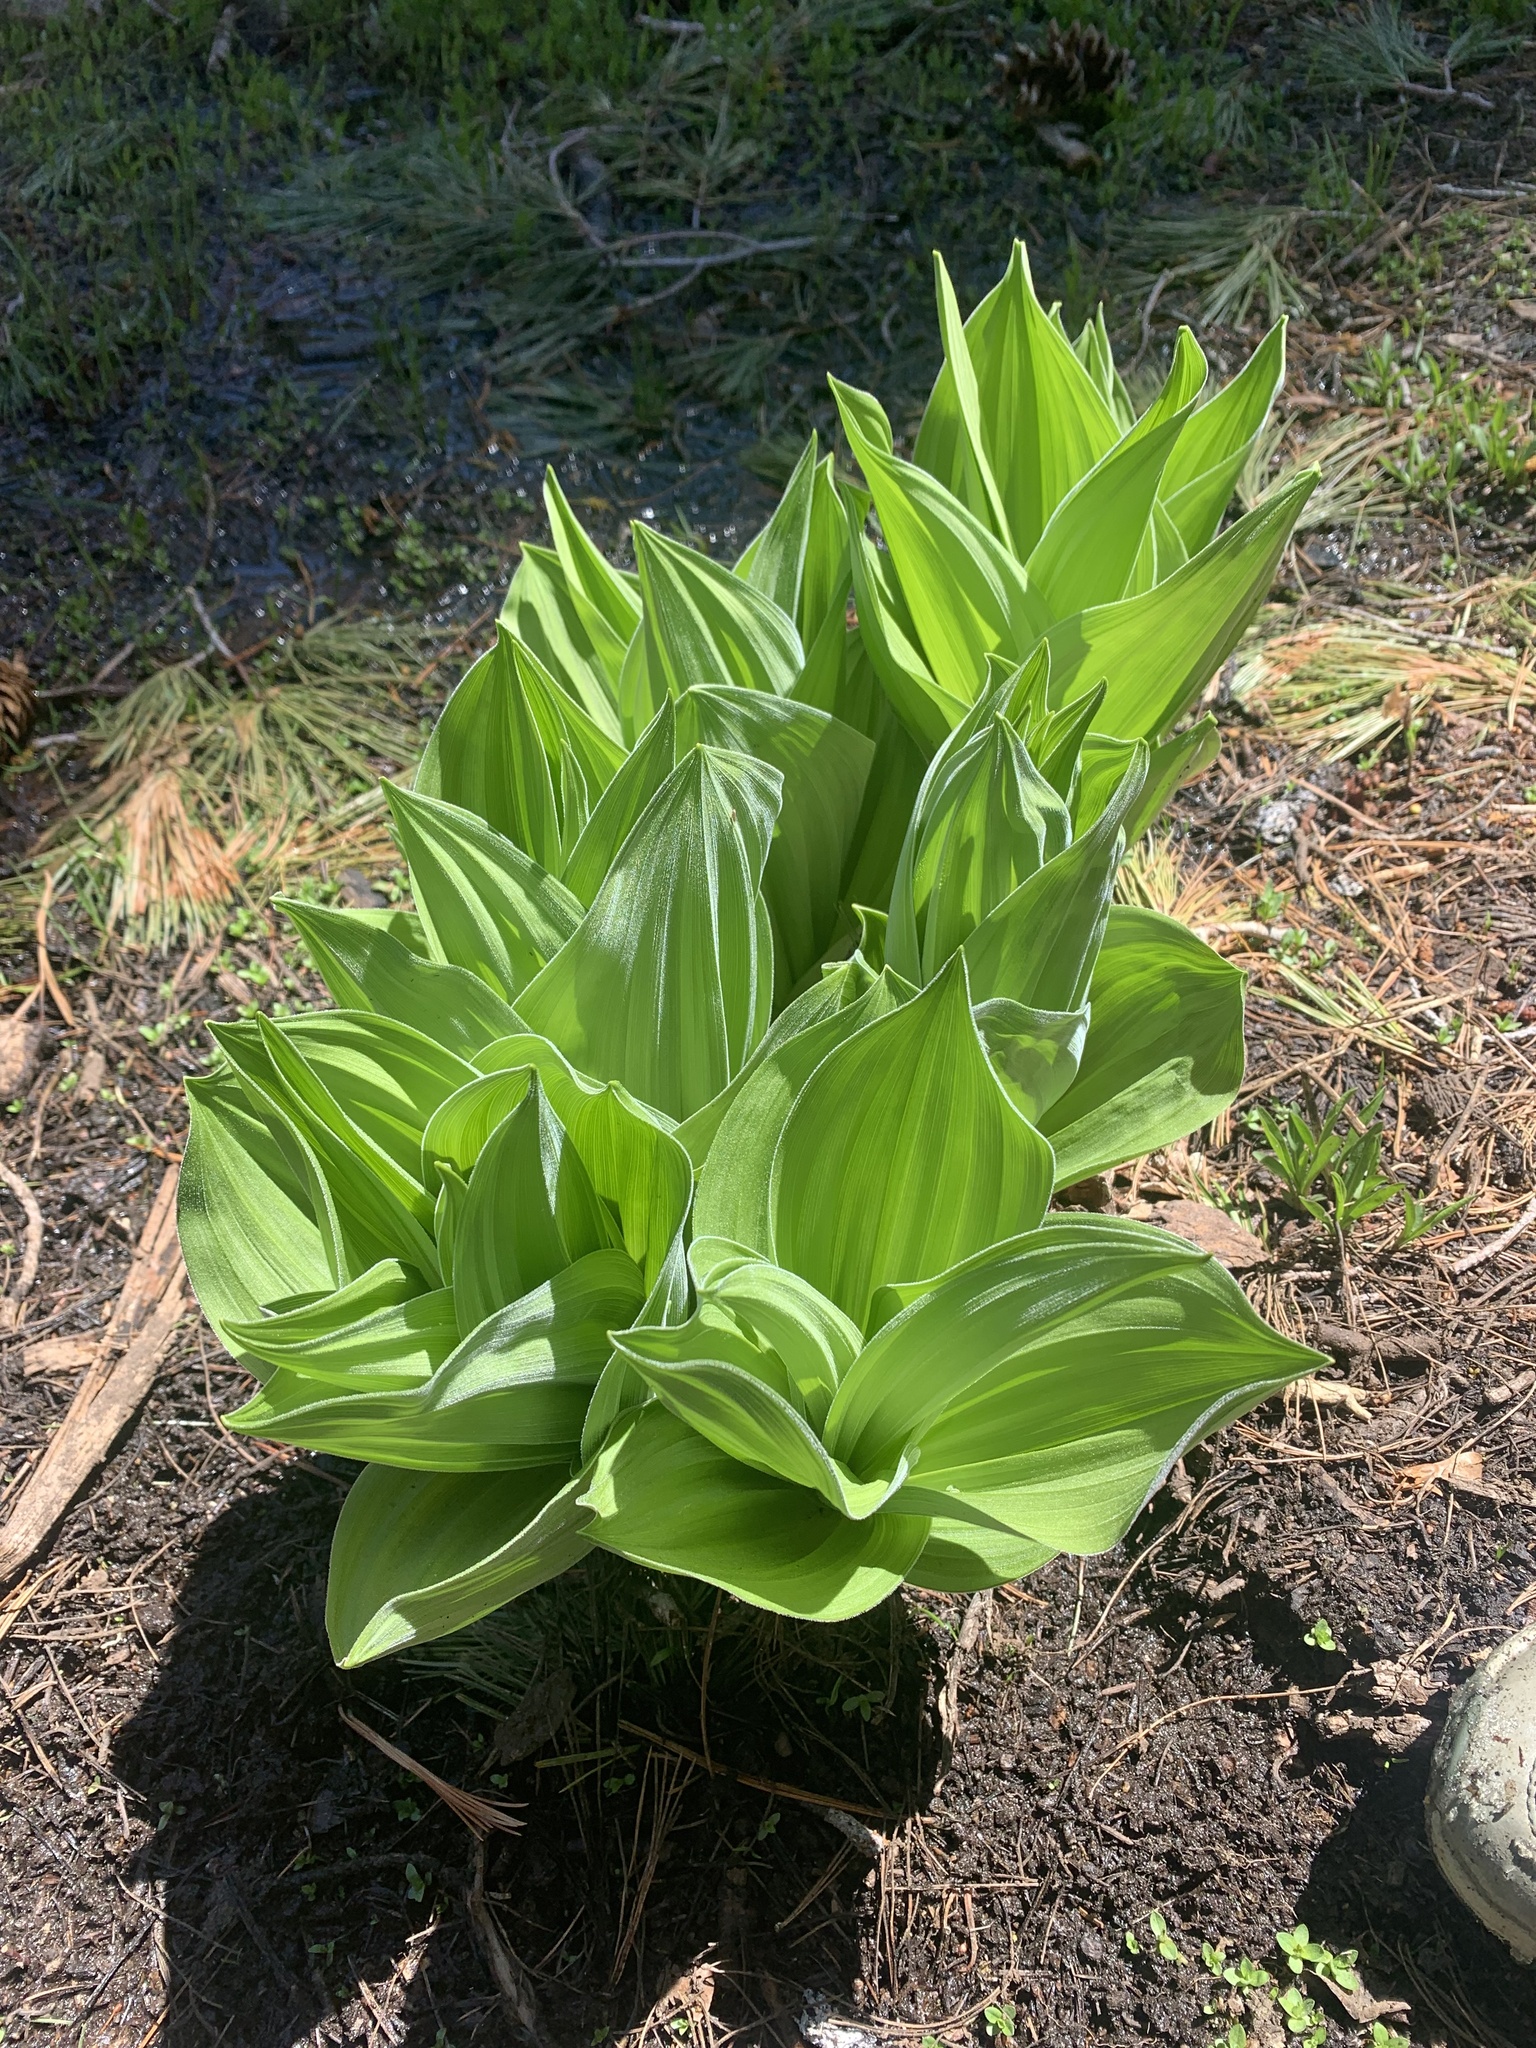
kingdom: Plantae
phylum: Tracheophyta
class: Liliopsida
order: Liliales
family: Melanthiaceae
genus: Veratrum
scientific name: Veratrum californicum
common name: California veratrum
